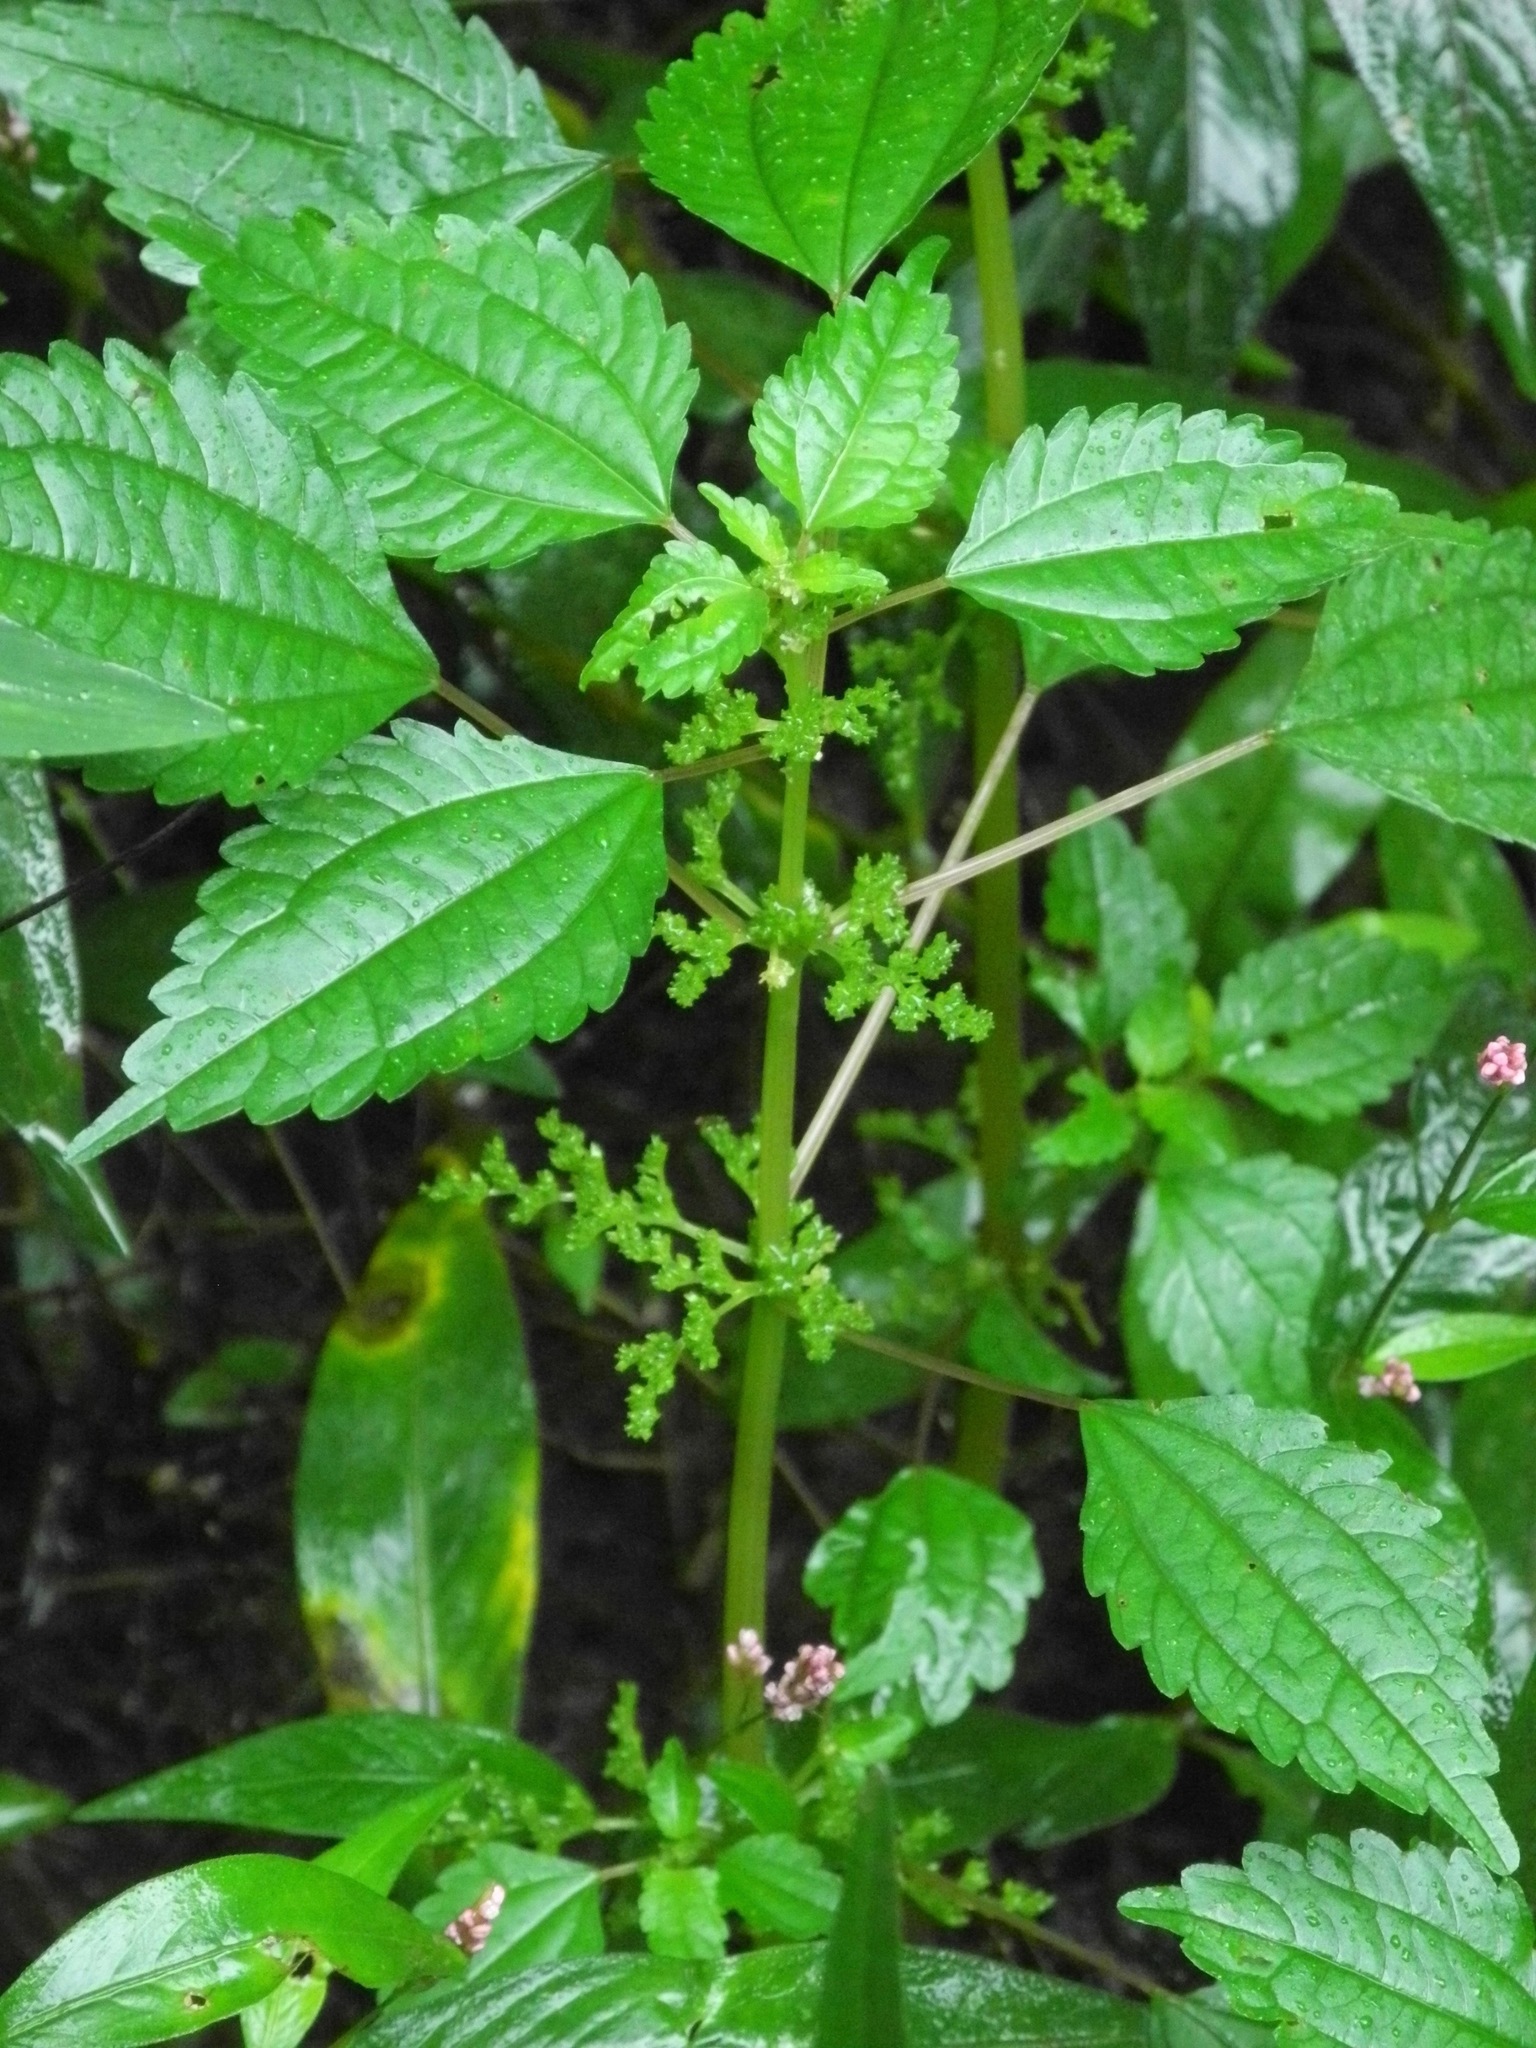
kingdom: Plantae
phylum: Tracheophyta
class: Magnoliopsida
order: Rosales
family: Urticaceae
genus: Pilea
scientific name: Pilea pumila
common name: Clearweed
